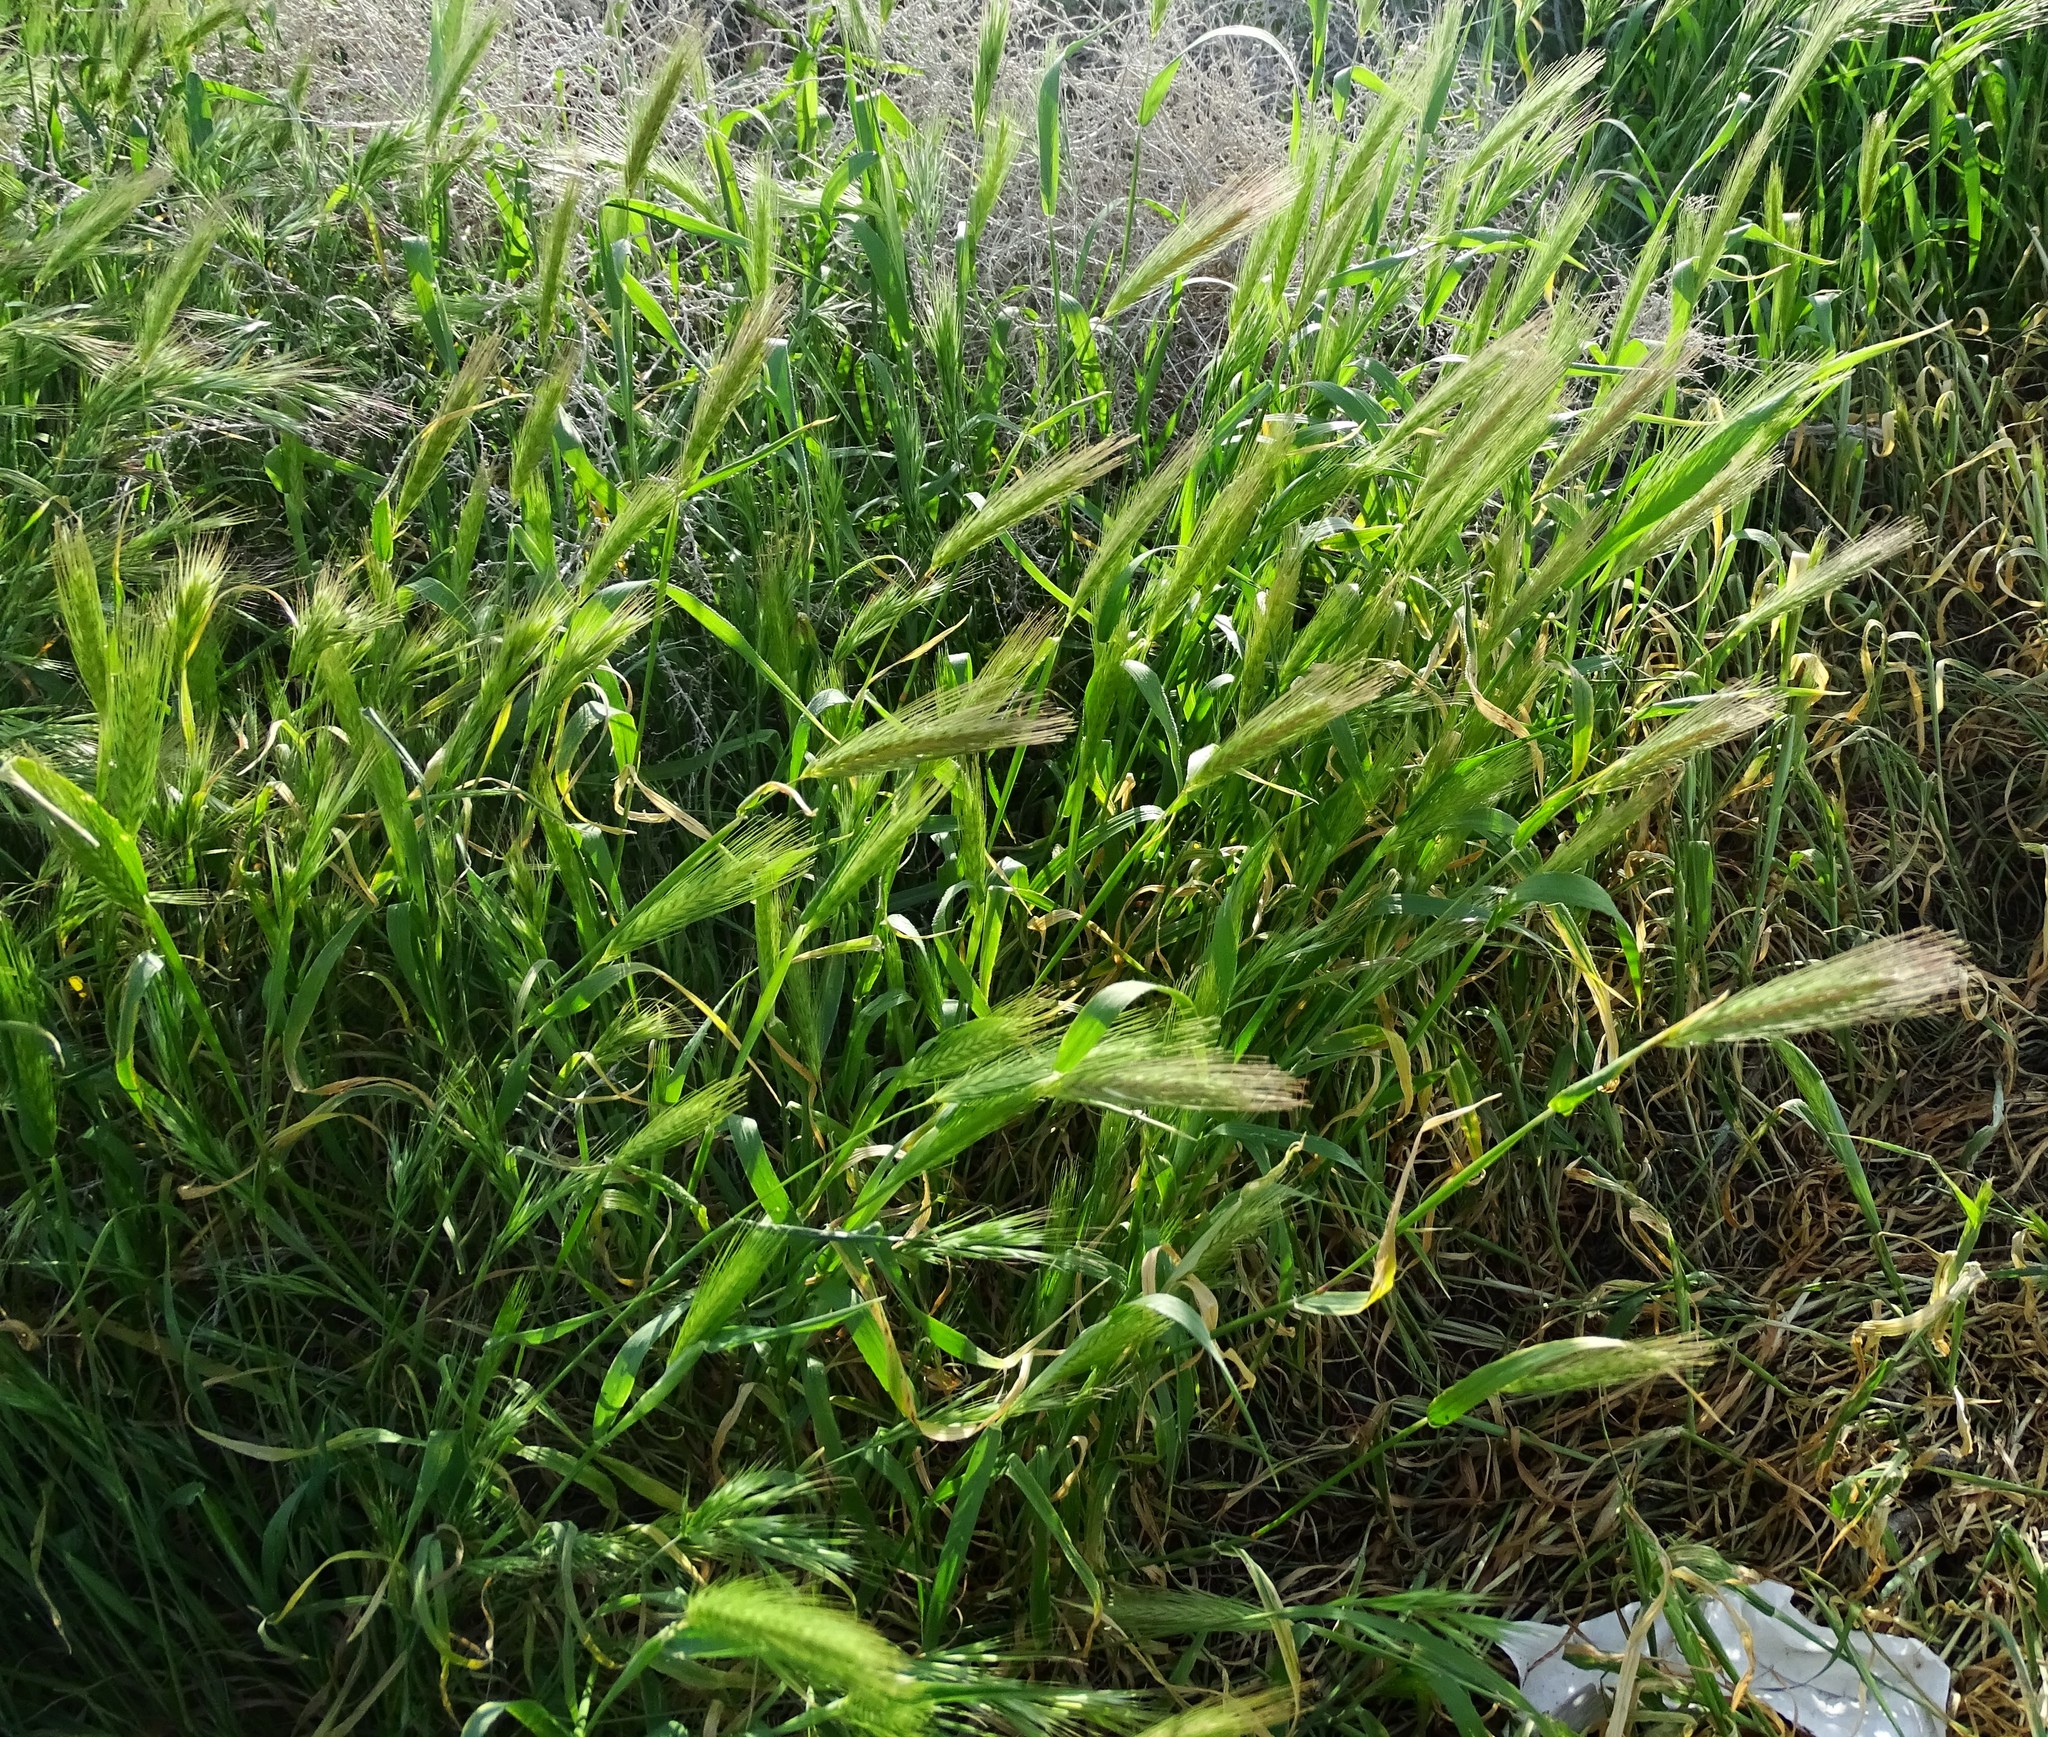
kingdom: Plantae
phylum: Tracheophyta
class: Liliopsida
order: Poales
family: Poaceae
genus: Hordeum
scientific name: Hordeum murinum
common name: Wall barley
